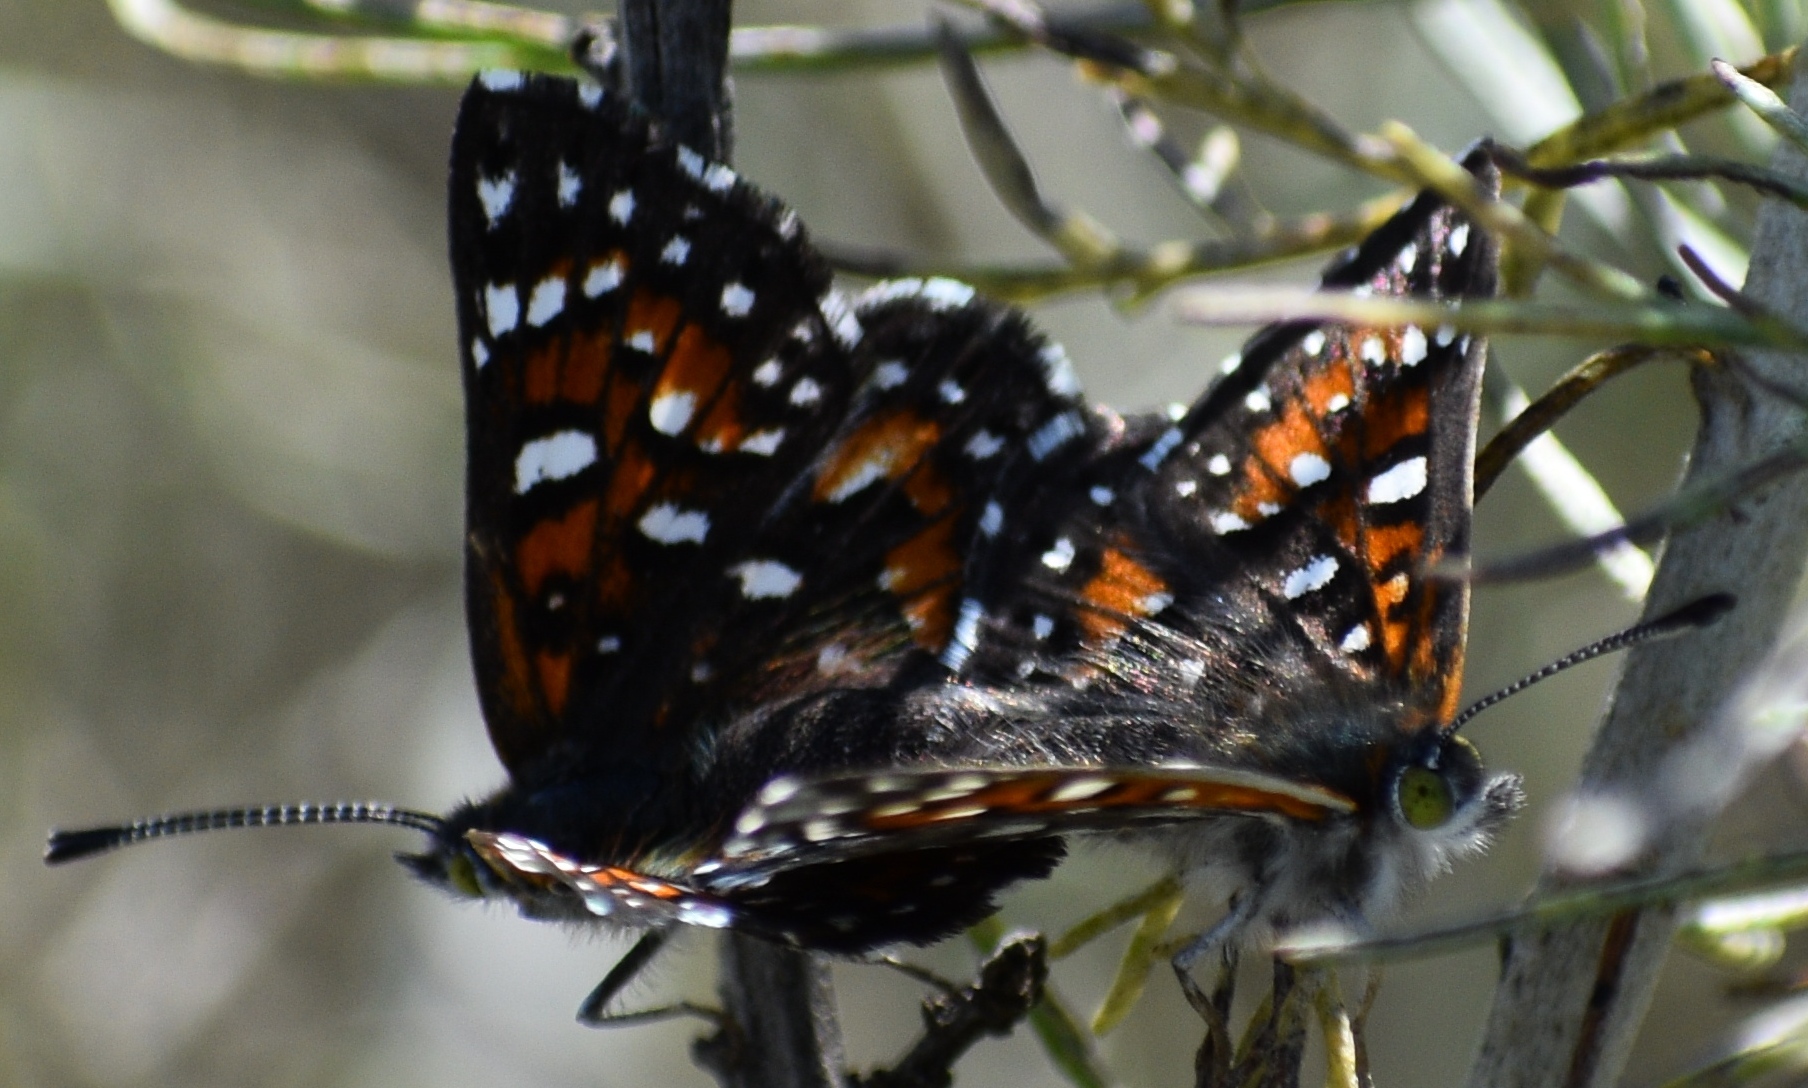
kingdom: Animalia
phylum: Arthropoda
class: Insecta
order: Lepidoptera
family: Riodinidae
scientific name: Riodinidae
